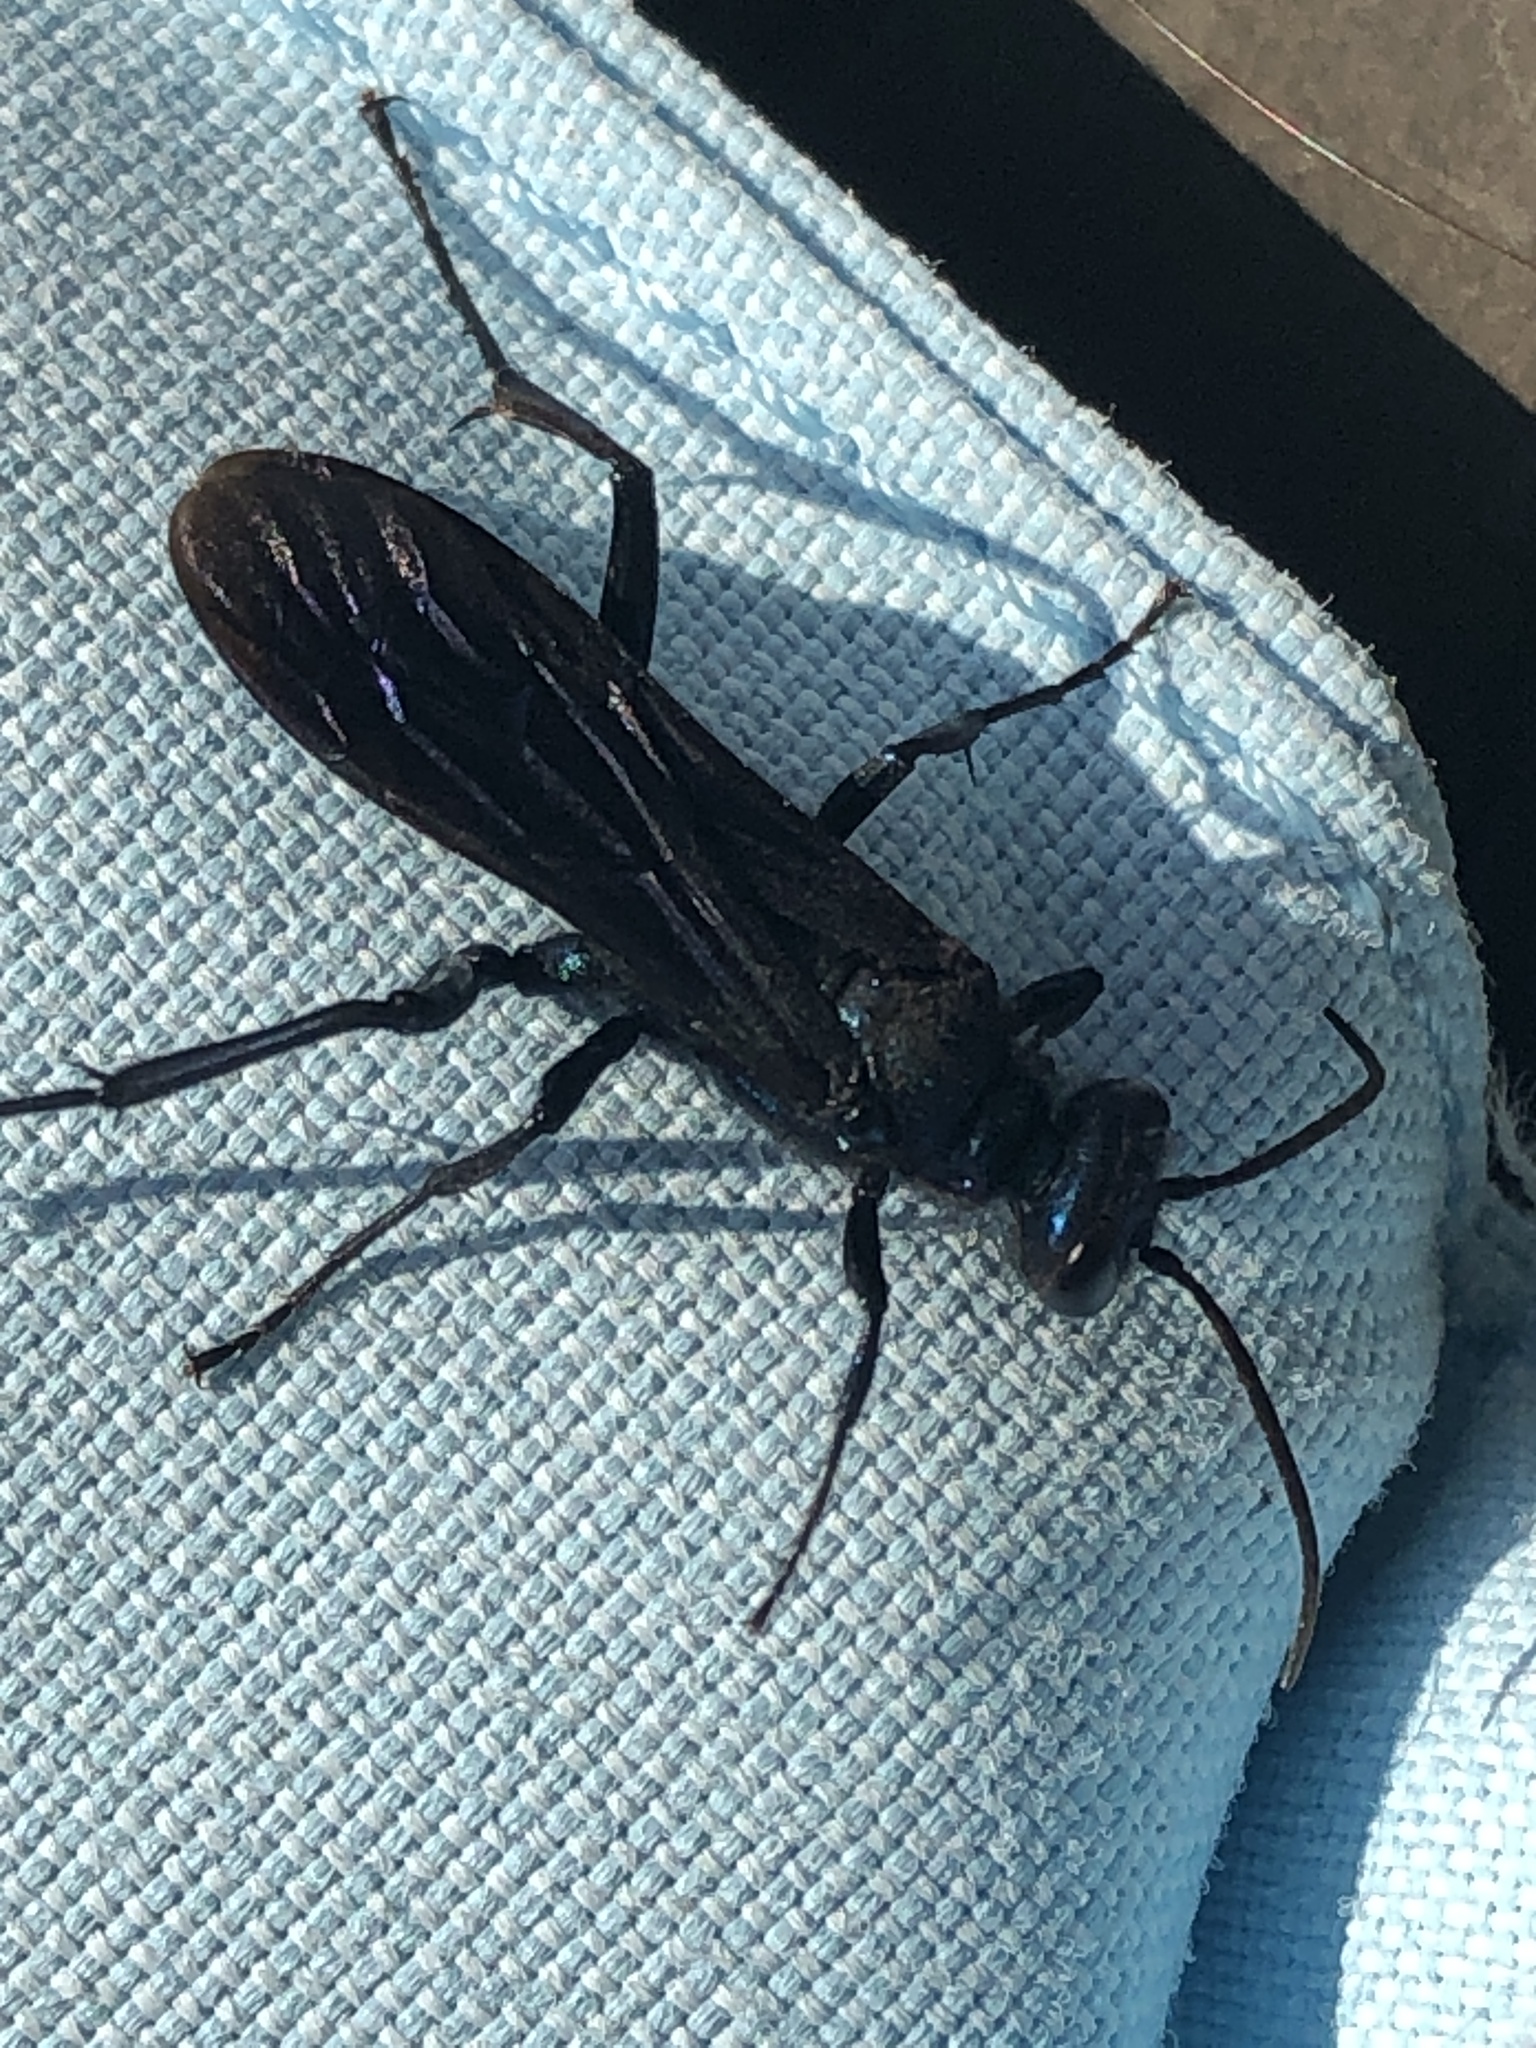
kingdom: Animalia
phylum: Arthropoda
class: Insecta
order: Hymenoptera
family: Sphecidae
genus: Chalybion
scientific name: Chalybion californicum
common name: Mud dauber
